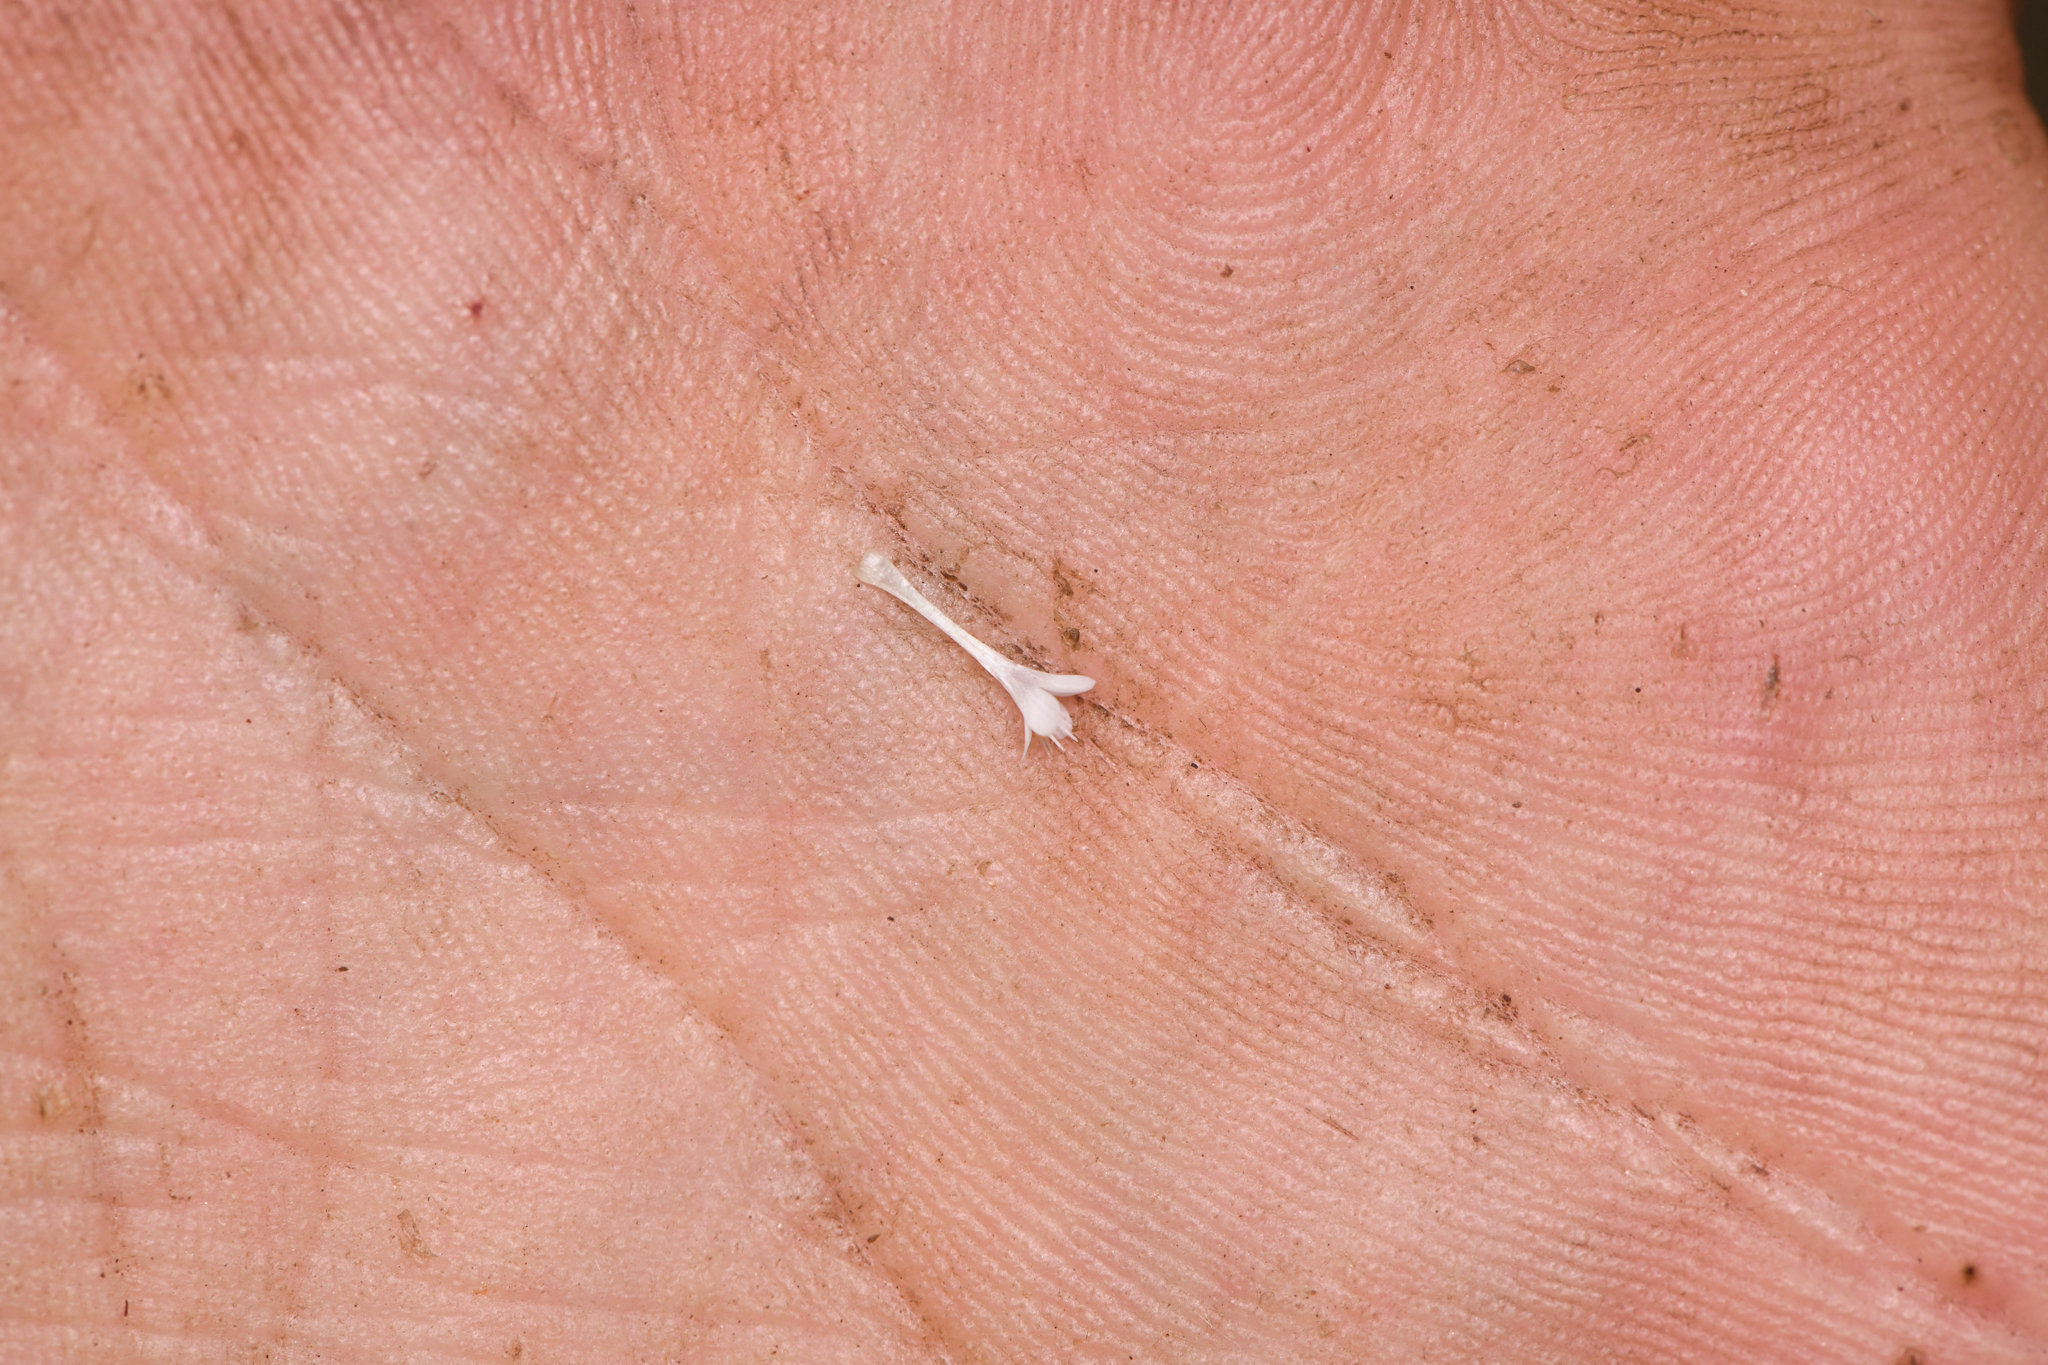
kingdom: Plantae
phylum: Tracheophyta
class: Magnoliopsida
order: Ericales
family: Polemoniaceae
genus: Navarretia
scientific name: Navarretia intertexta
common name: Needle-leaved navarretia
